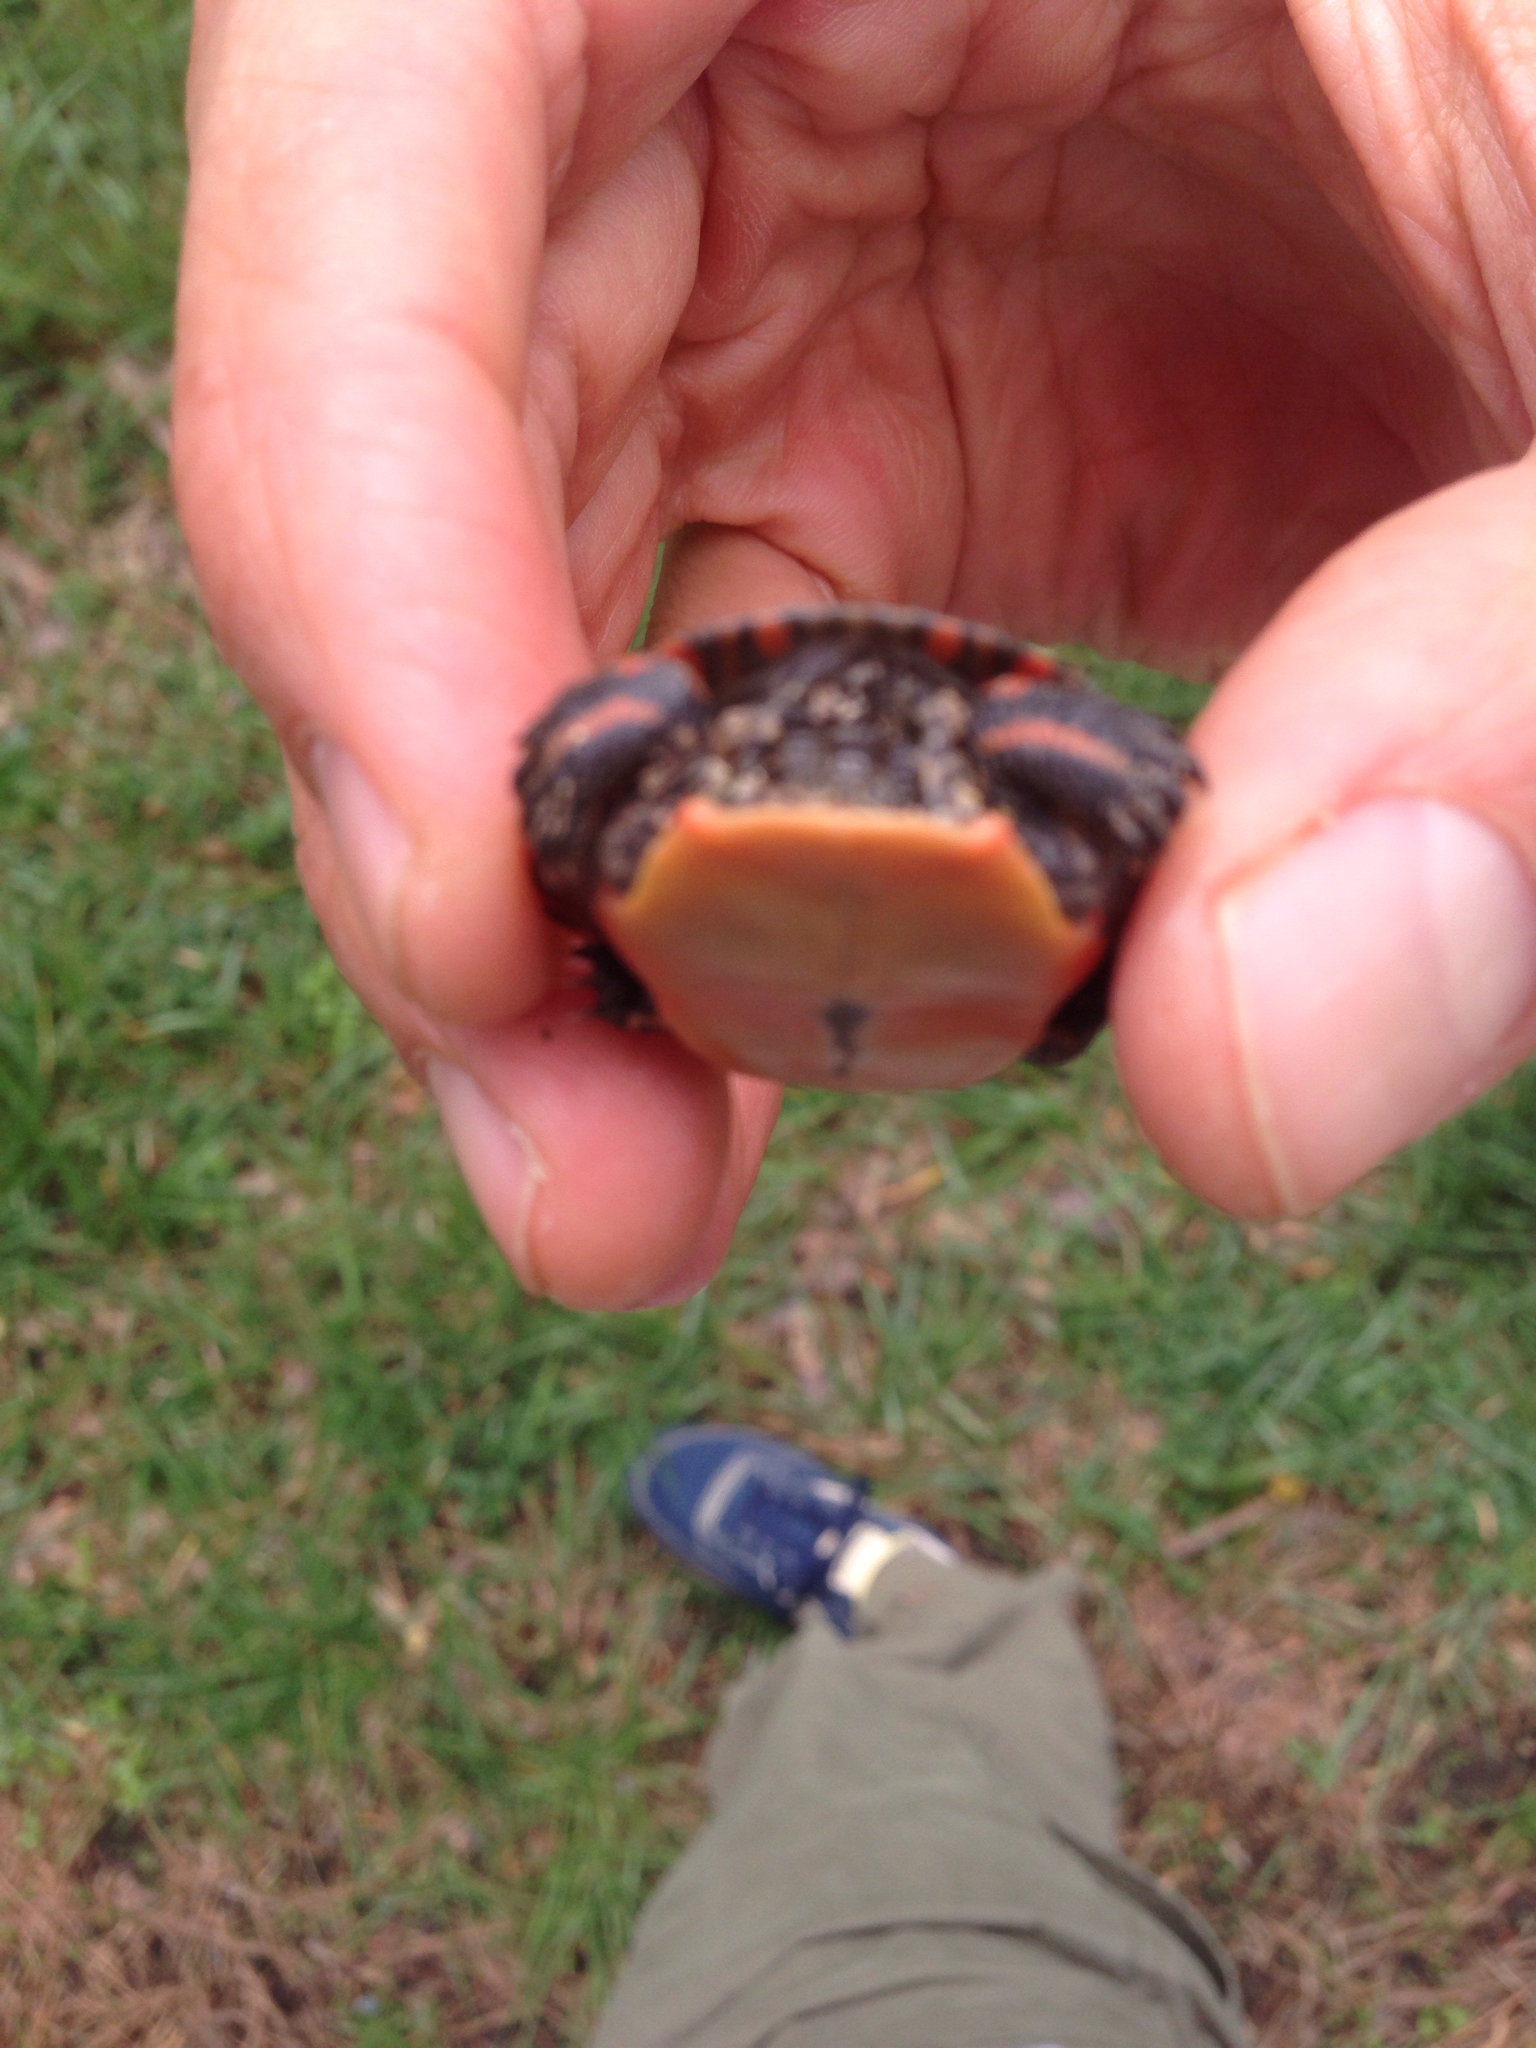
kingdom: Animalia
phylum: Chordata
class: Testudines
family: Emydidae
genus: Chrysemys
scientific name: Chrysemys picta
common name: Painted turtle
